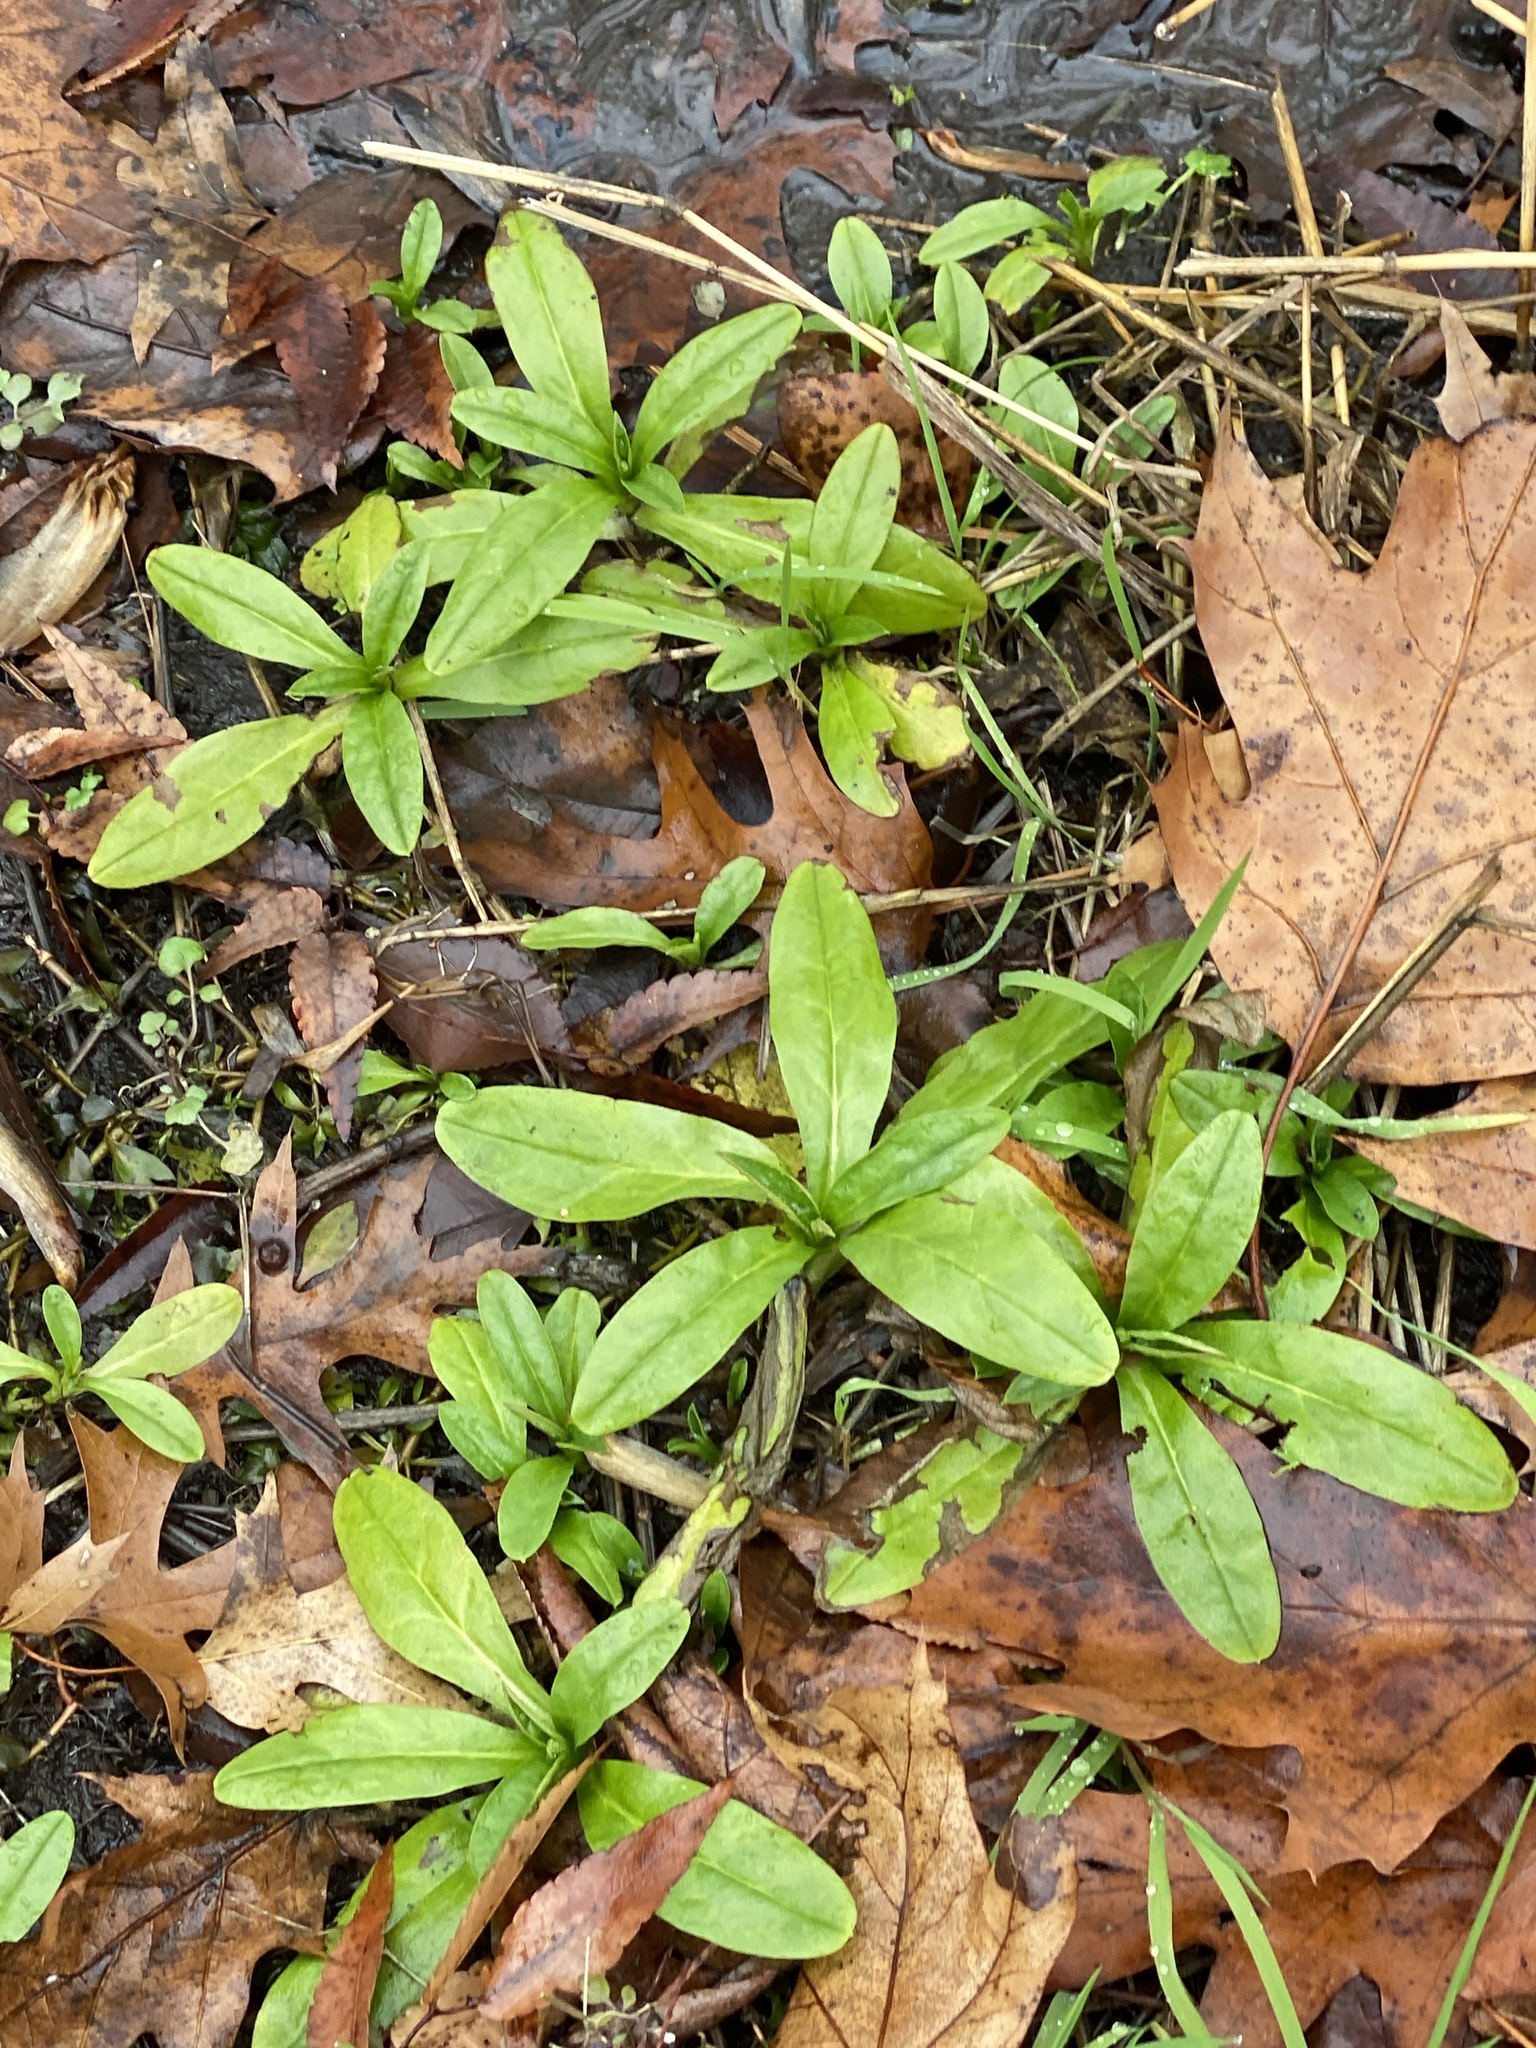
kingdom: Plantae
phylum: Tracheophyta
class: Magnoliopsida
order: Boraginales
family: Boraginaceae
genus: Myosotis
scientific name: Myosotis scorpioides
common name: Water forget-me-not
